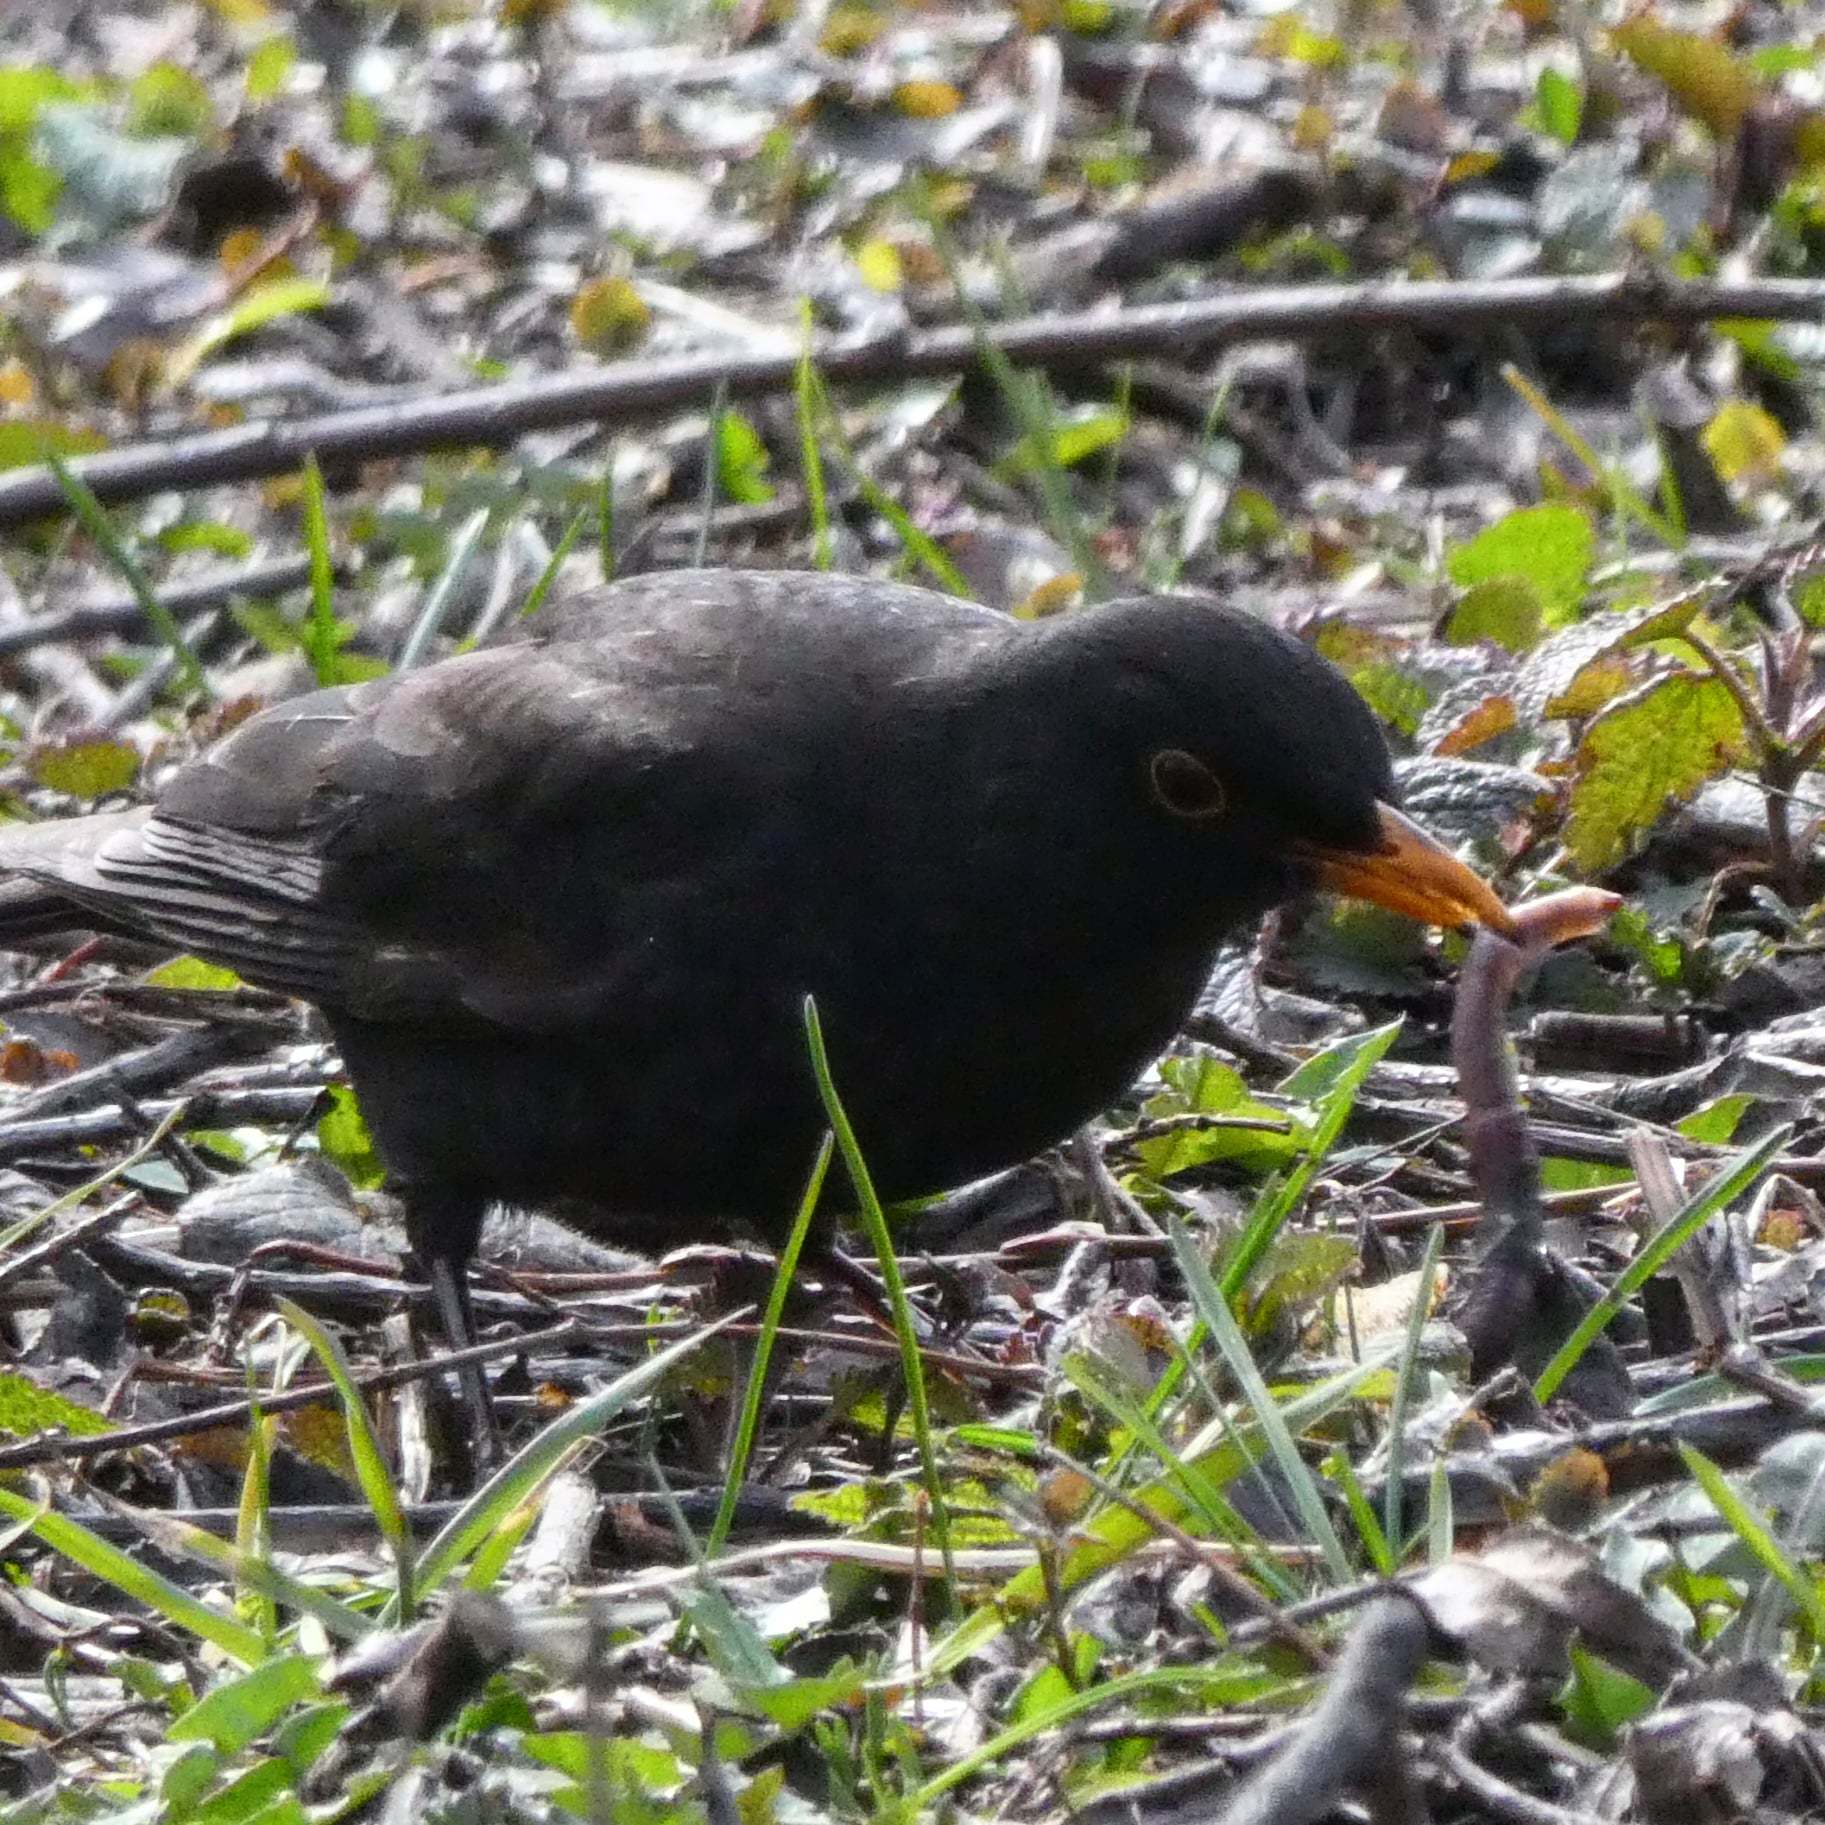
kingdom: Animalia
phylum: Chordata
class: Aves
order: Passeriformes
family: Turdidae
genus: Turdus
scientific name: Turdus merula
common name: Common blackbird
